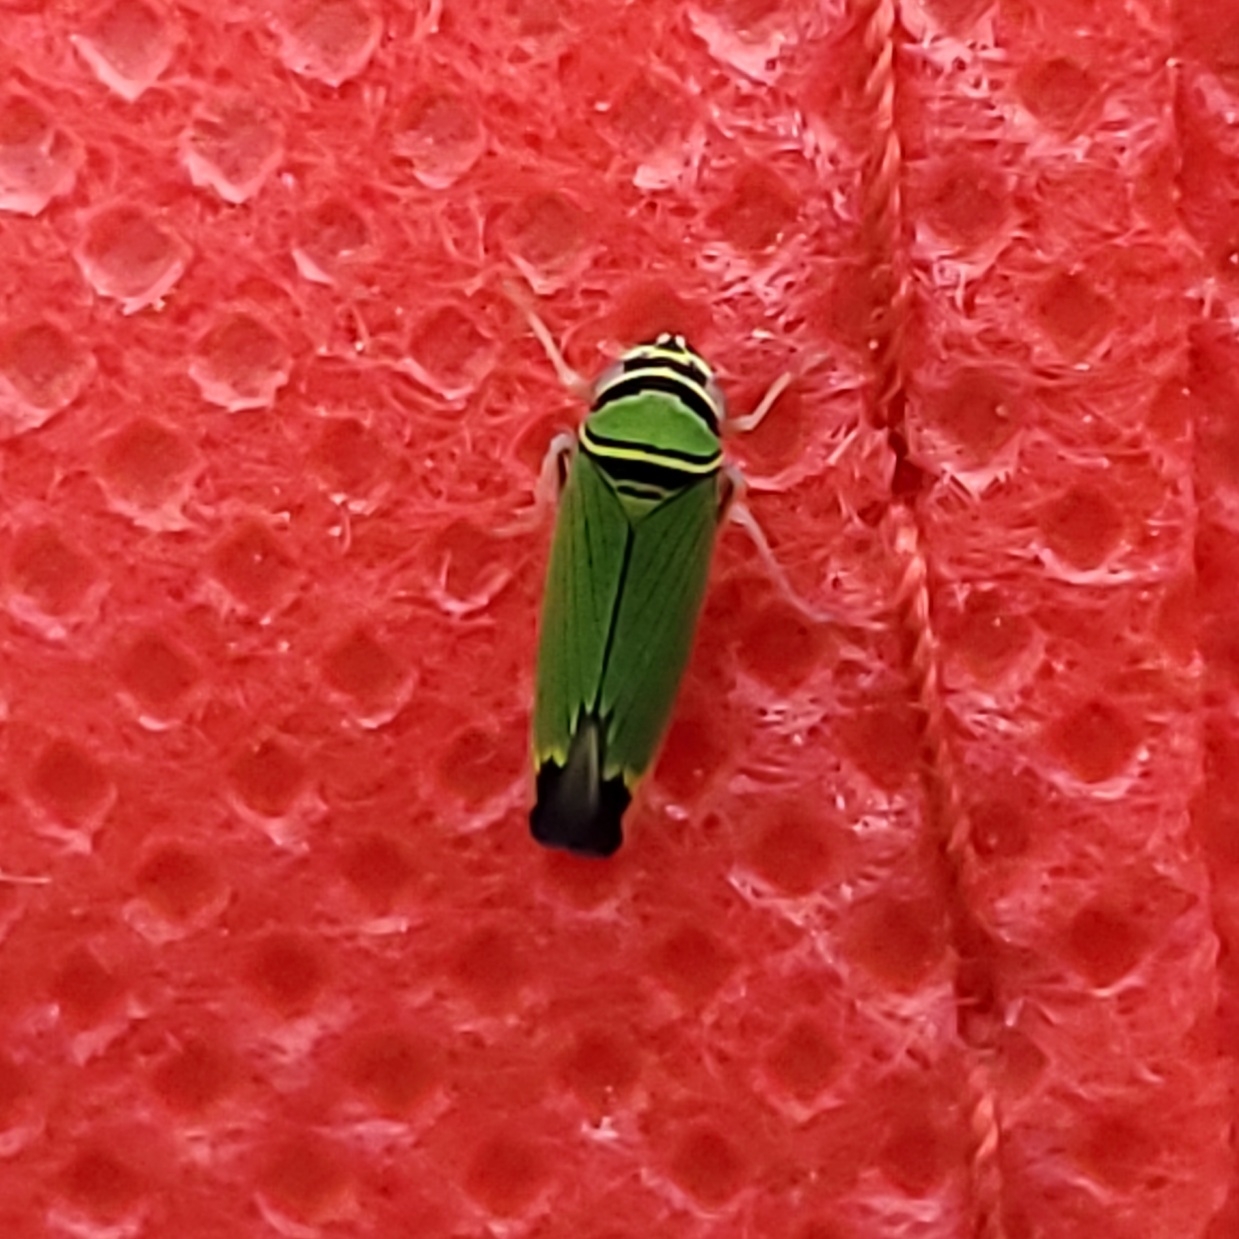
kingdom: Animalia
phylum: Arthropoda
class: Insecta
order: Hemiptera
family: Cicadellidae
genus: Tylozygus
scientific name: Tylozygus geometricus
